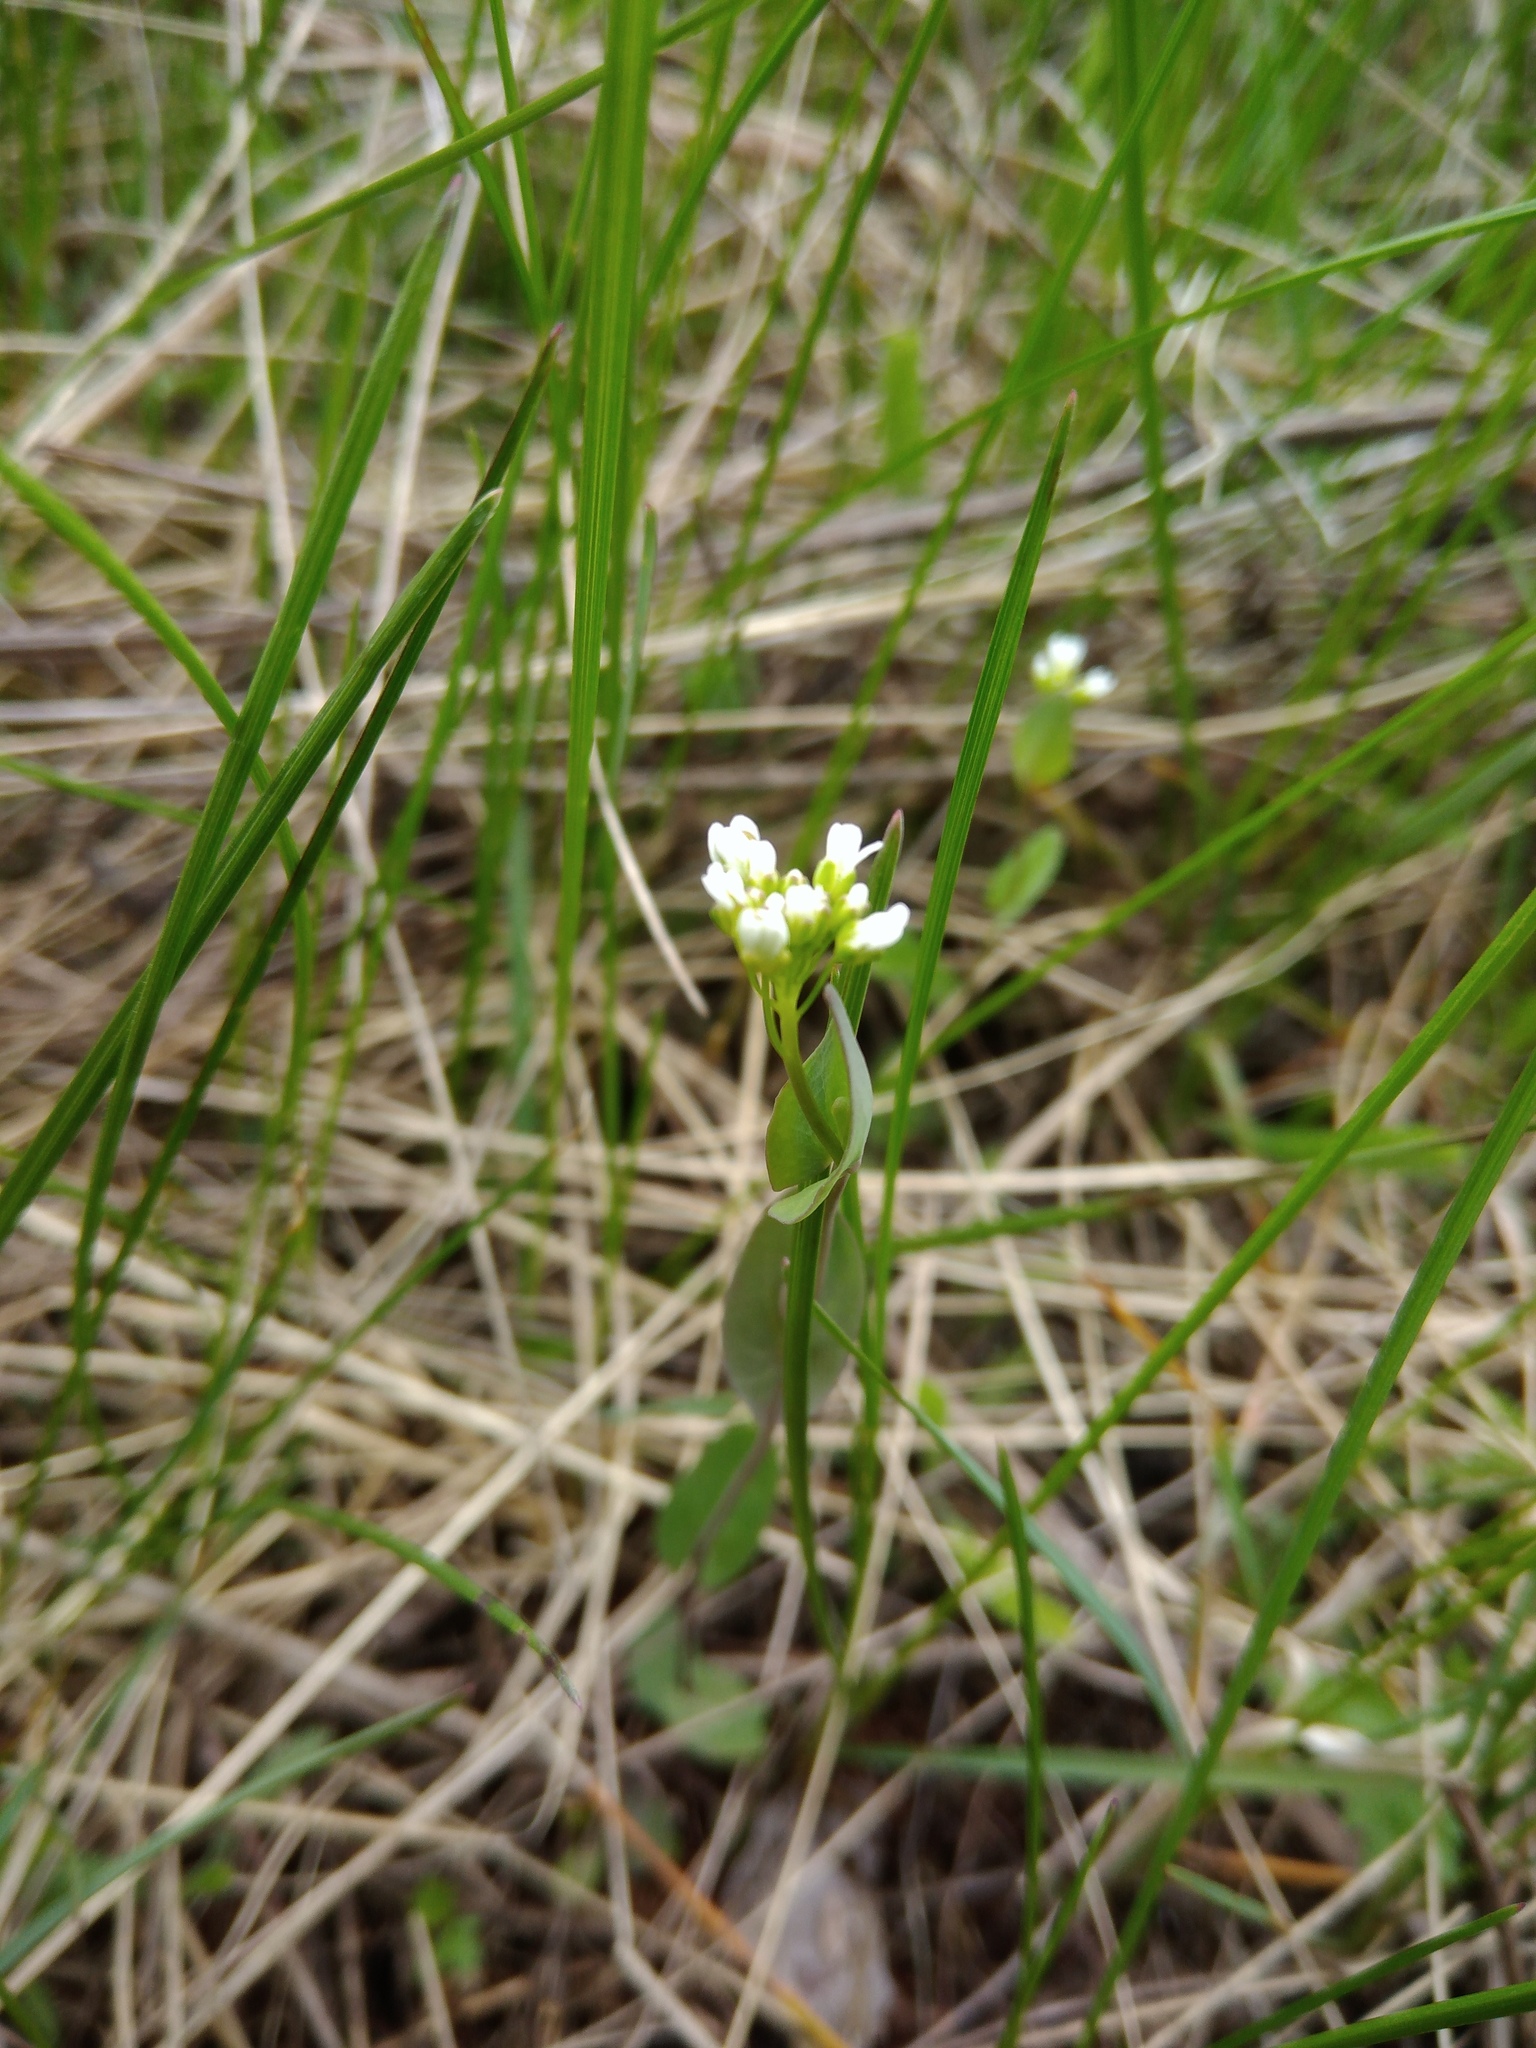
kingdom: Plantae
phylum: Tracheophyta
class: Magnoliopsida
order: Brassicales
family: Brassicaceae
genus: Noccaea
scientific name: Noccaea perfoliata
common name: Perfoliate pennycress
